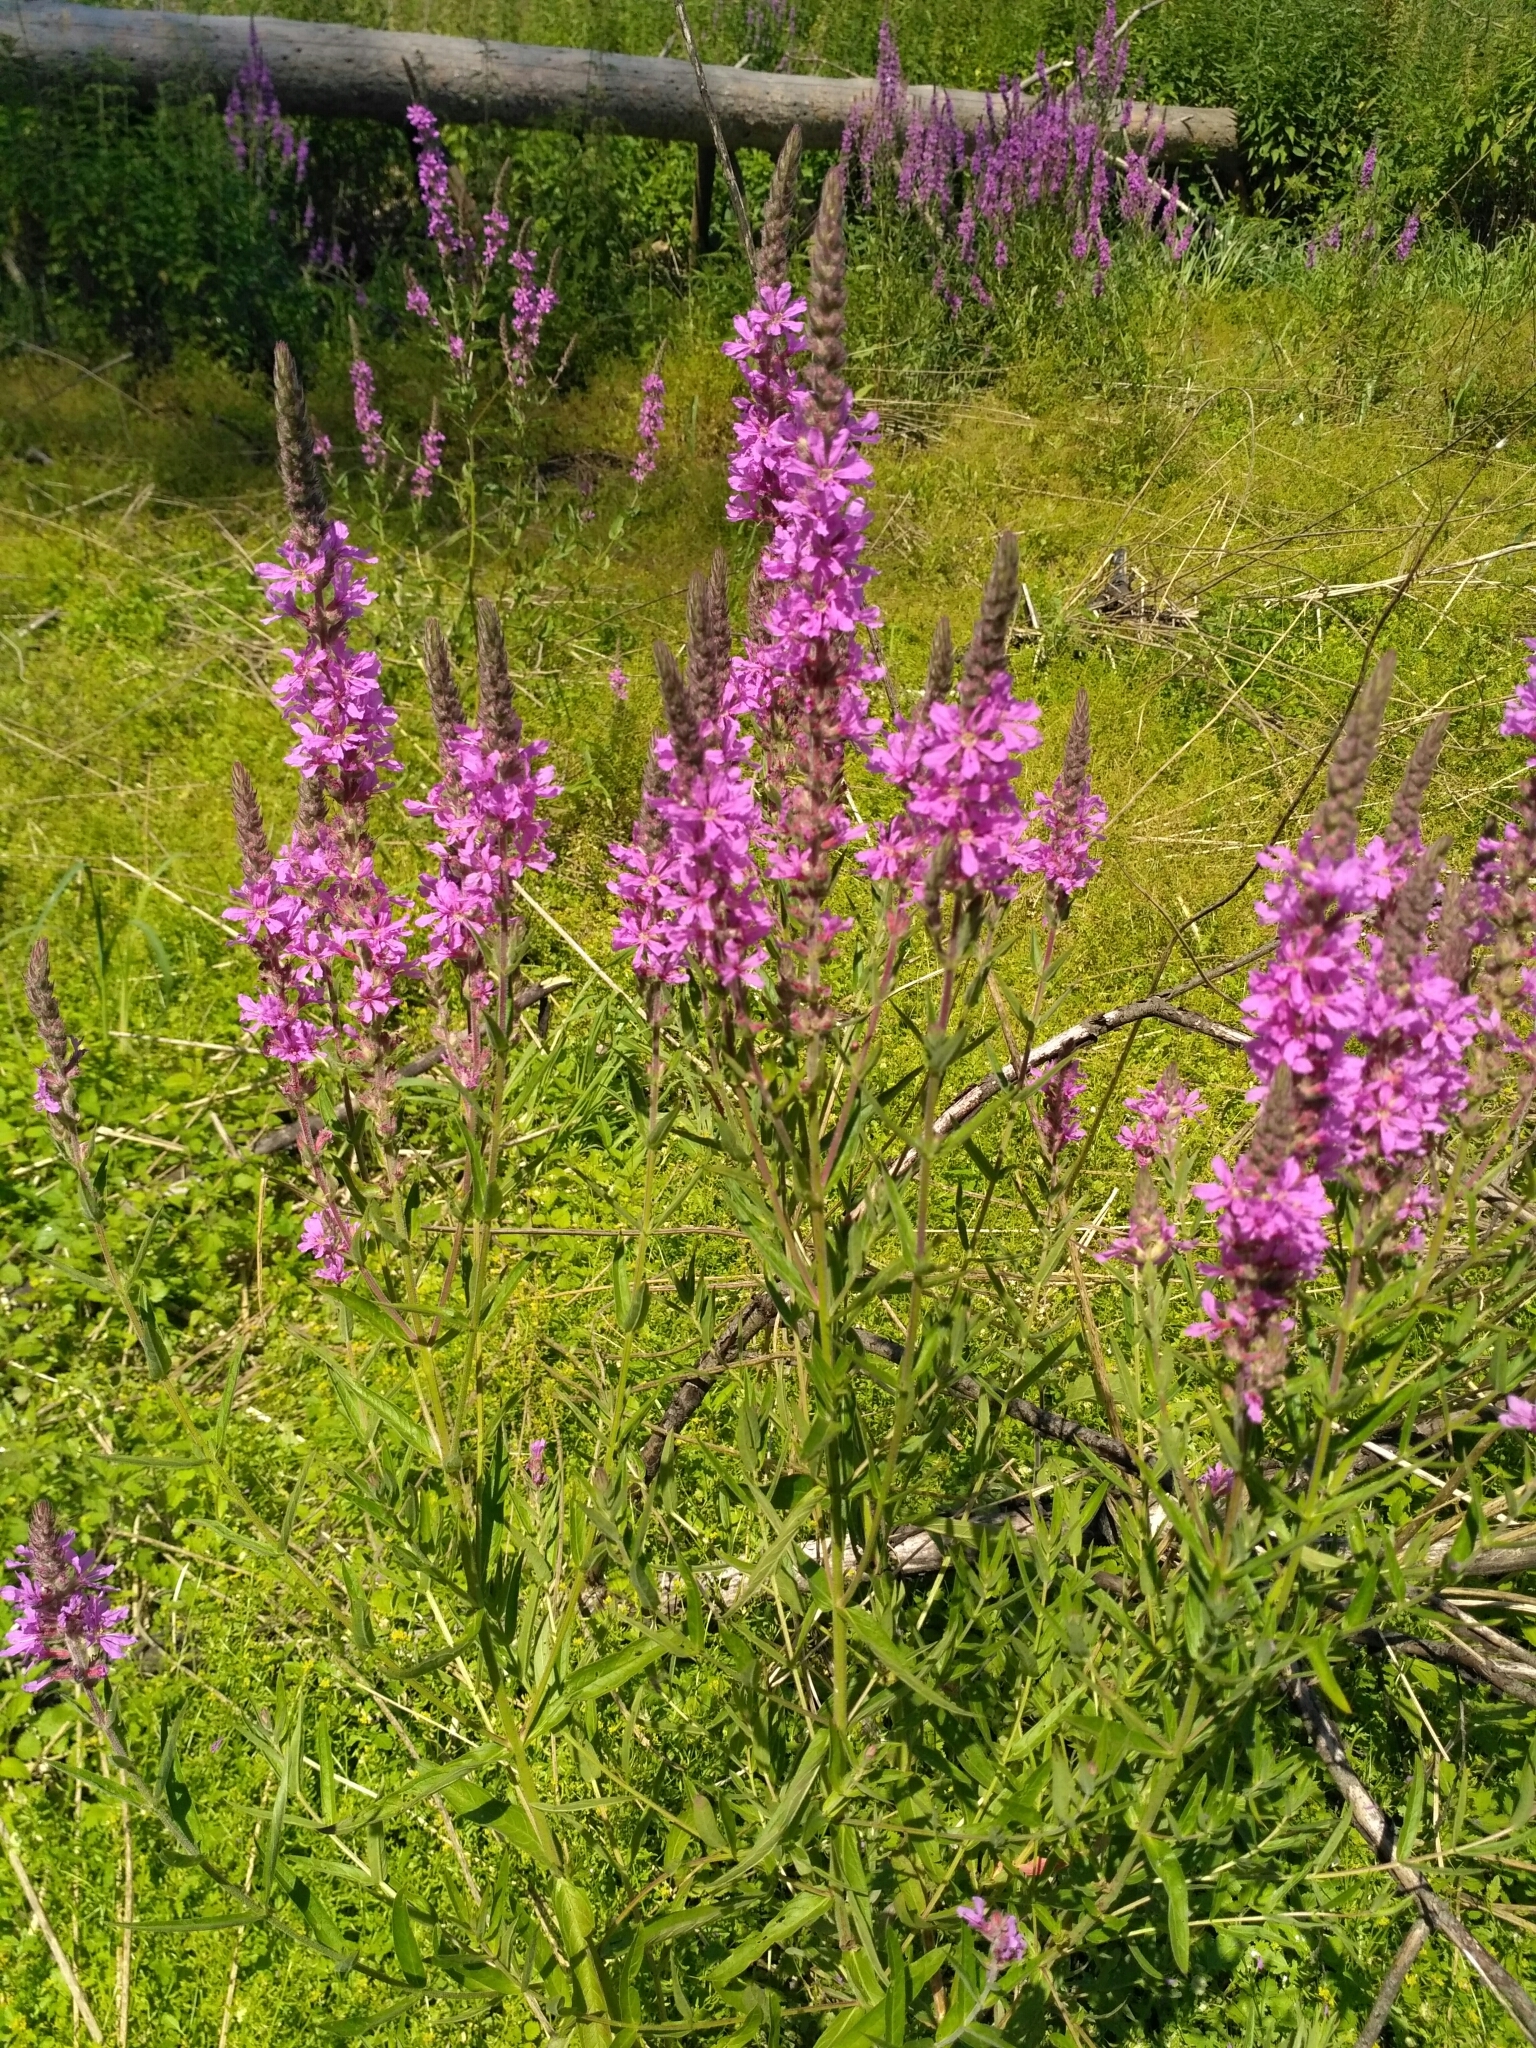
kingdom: Plantae
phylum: Tracheophyta
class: Magnoliopsida
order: Myrtales
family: Lythraceae
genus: Lythrum
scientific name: Lythrum salicaria
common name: Purple loosestrife
